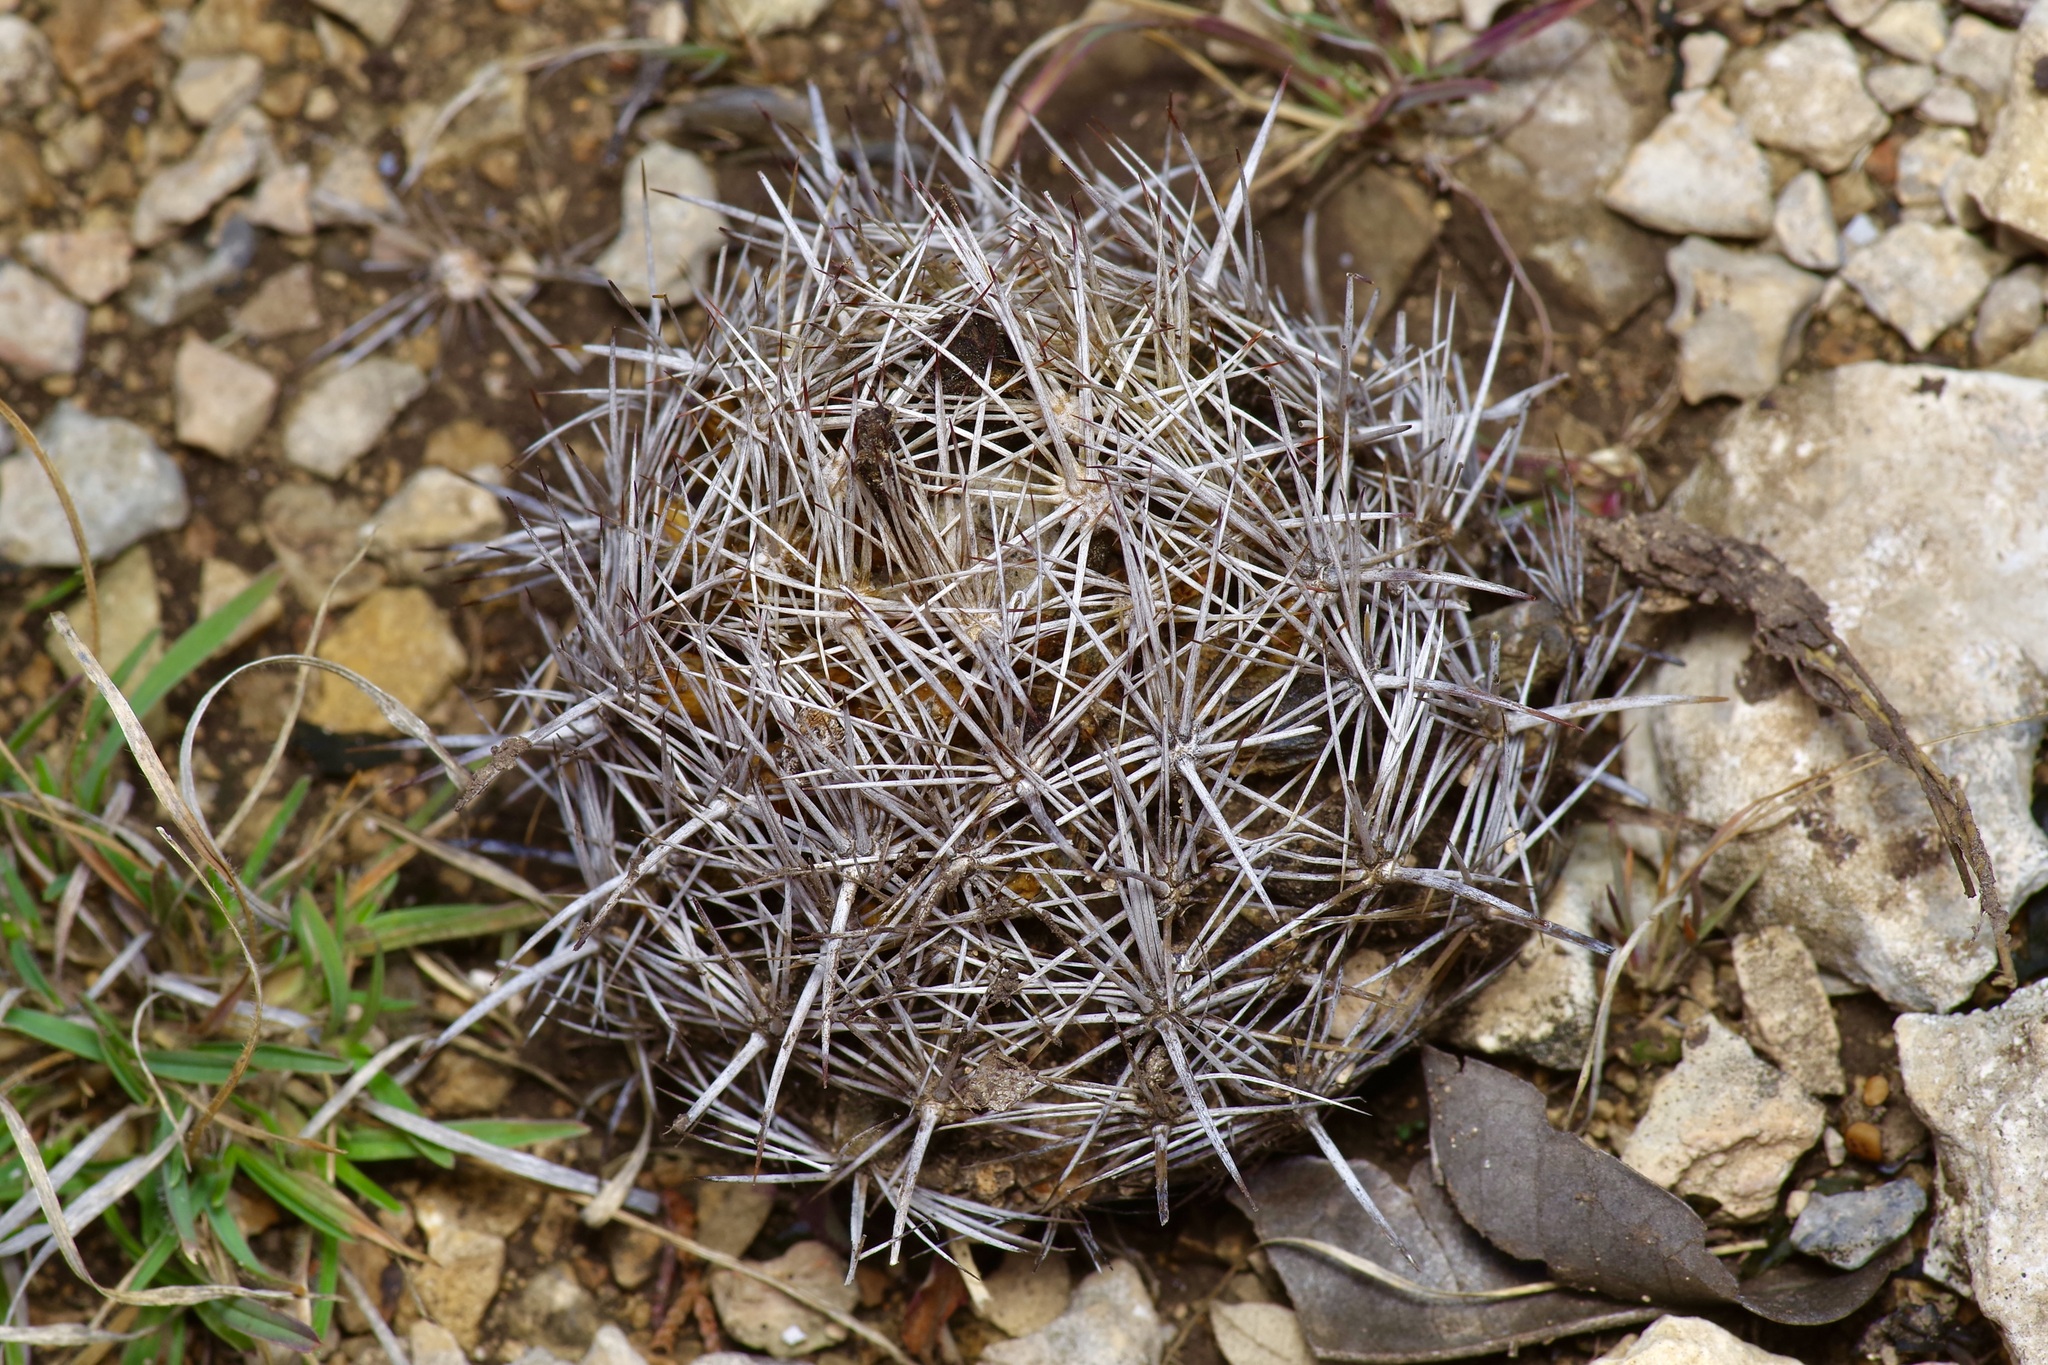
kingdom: Plantae
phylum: Tracheophyta
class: Magnoliopsida
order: Caryophyllales
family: Cactaceae
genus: Coryphantha
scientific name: Coryphantha sulcata
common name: Finger cactus
